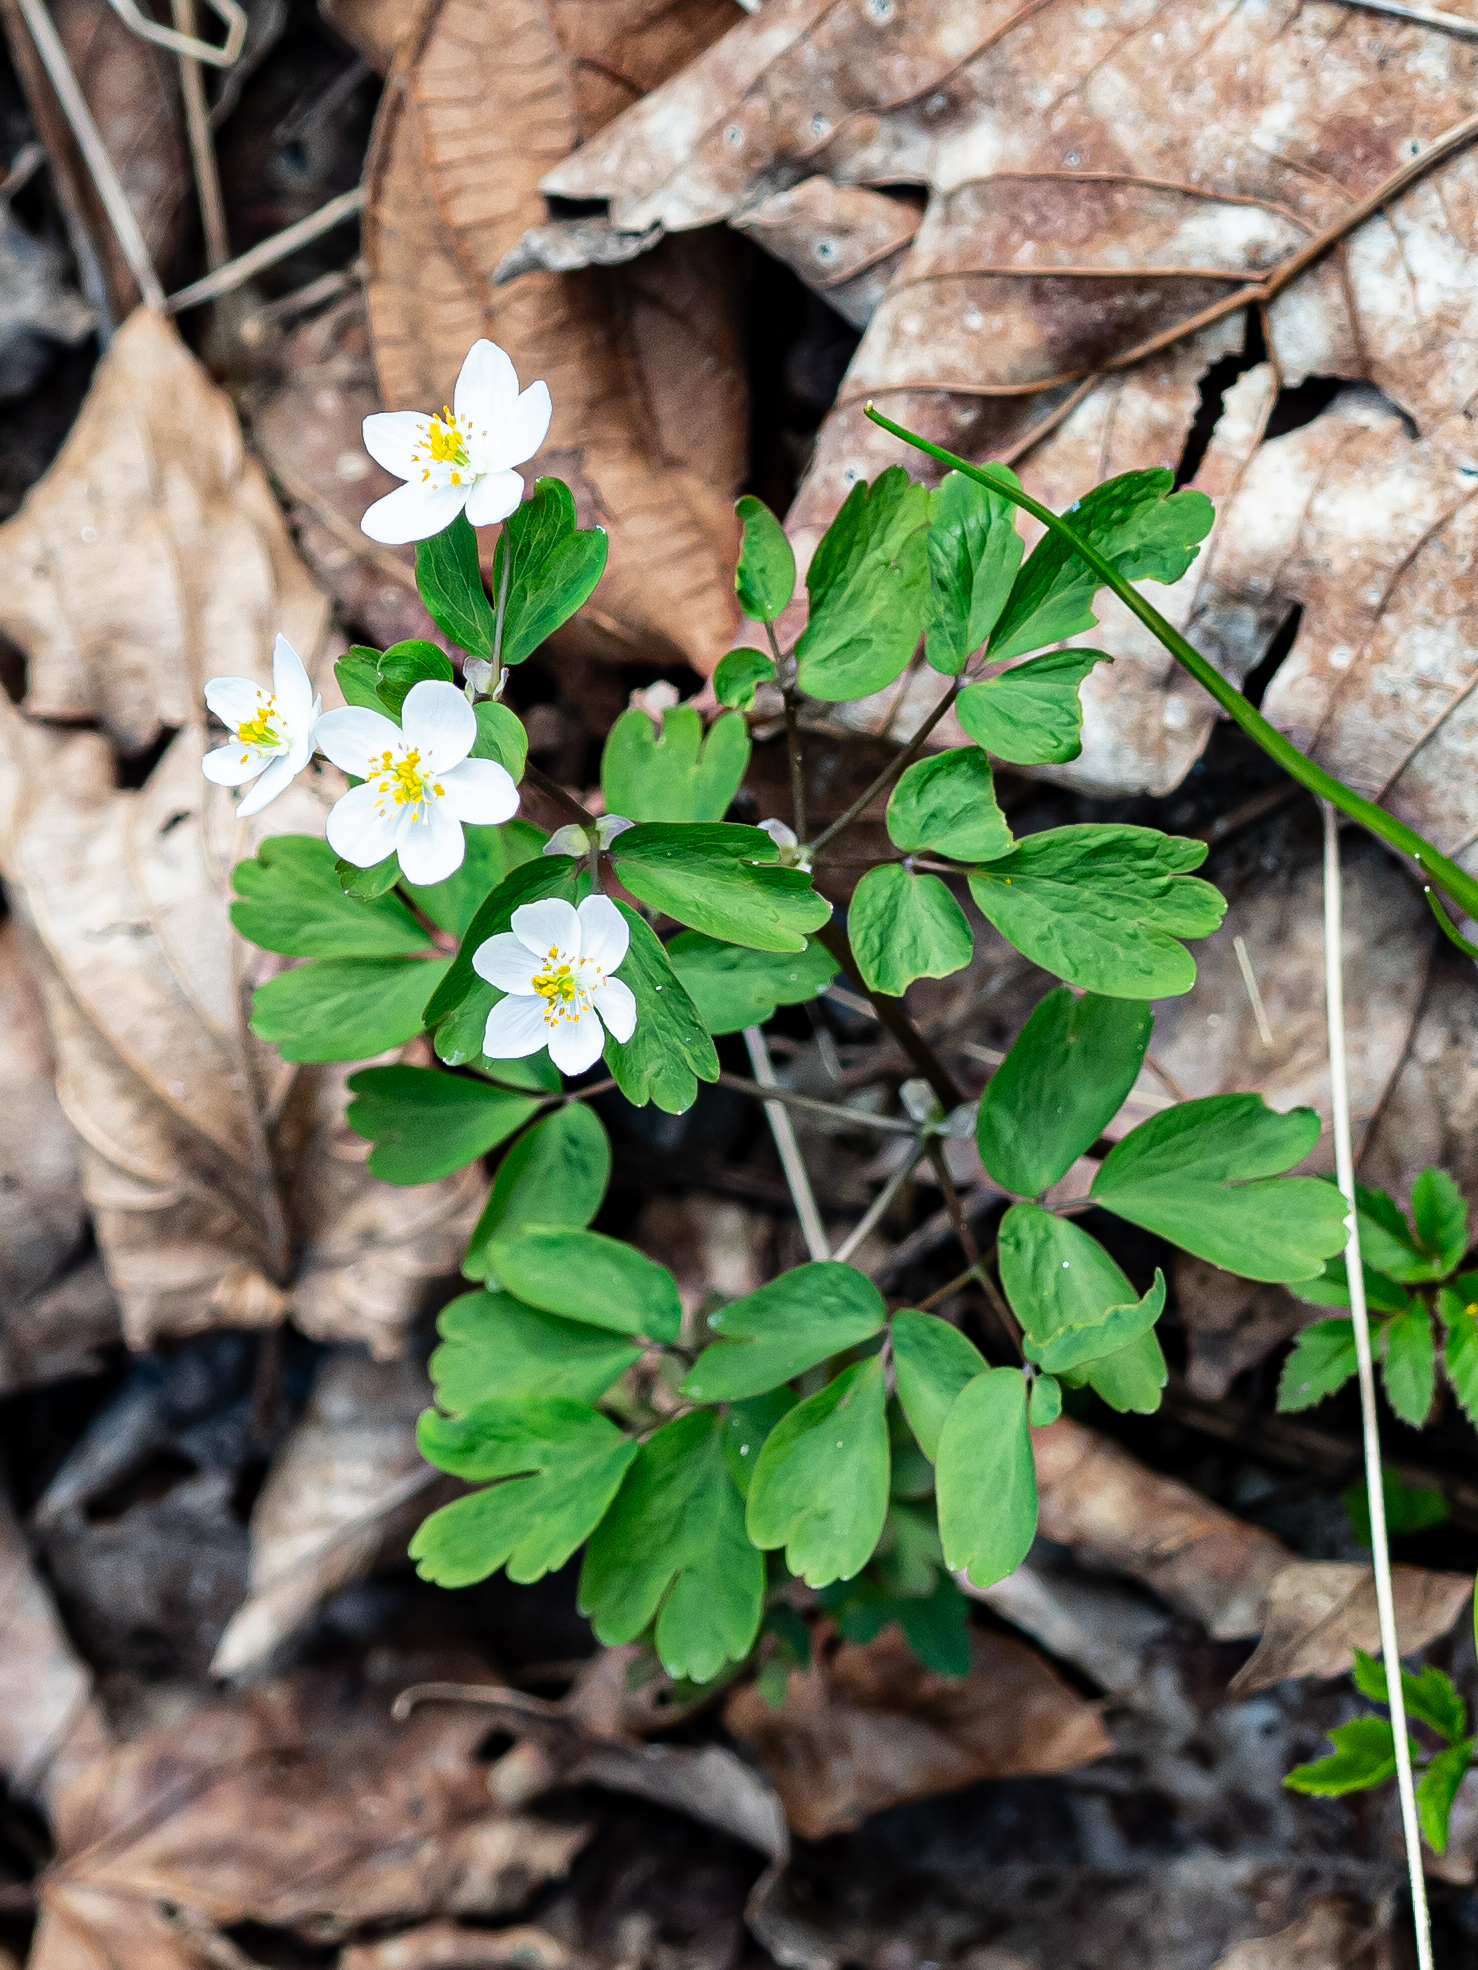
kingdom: Plantae
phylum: Tracheophyta
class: Magnoliopsida
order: Ranunculales
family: Ranunculaceae
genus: Isopyrum
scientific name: Isopyrum thalictroides
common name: Isopyrum
